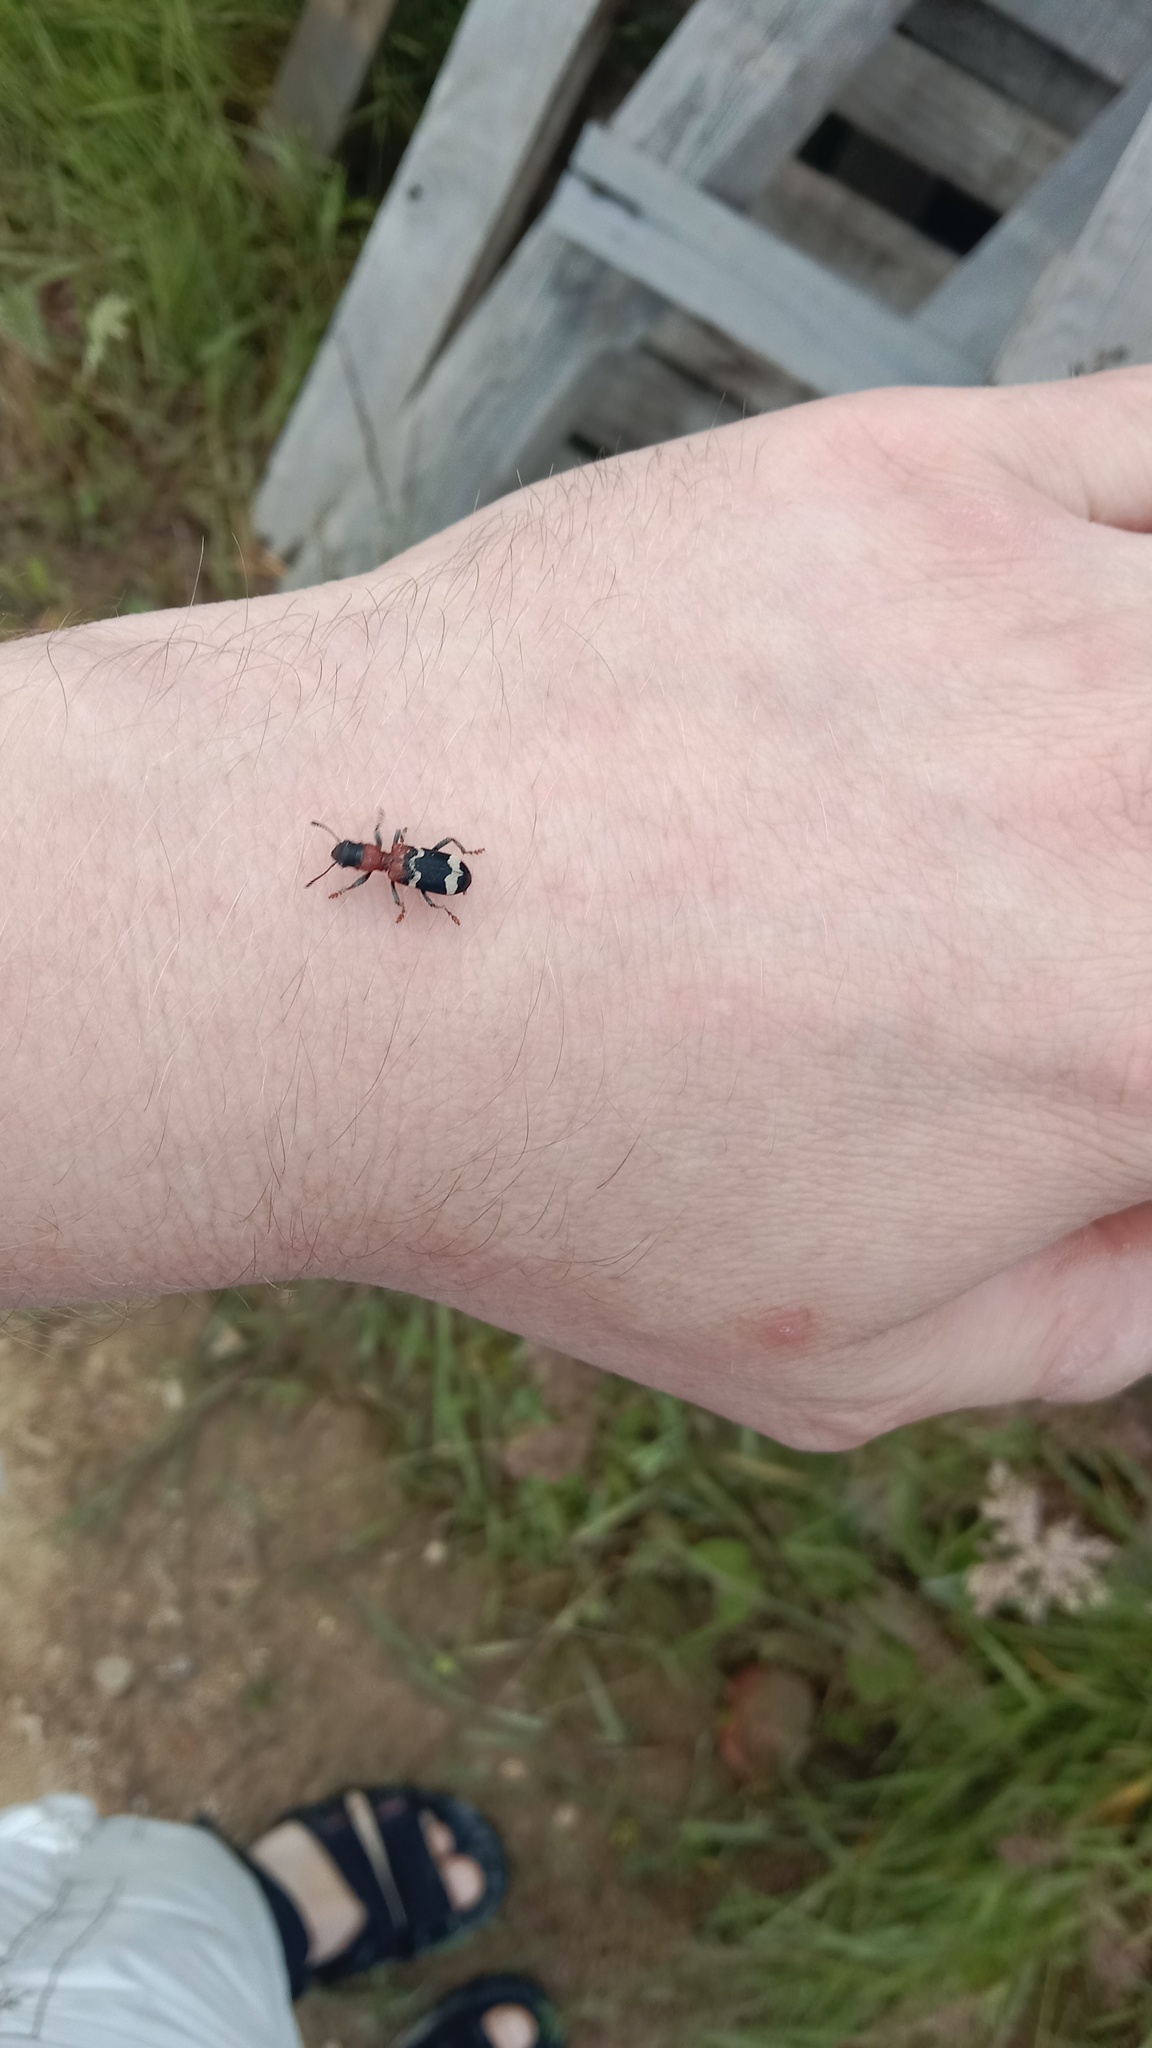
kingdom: Animalia
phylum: Arthropoda
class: Insecta
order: Coleoptera
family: Cleridae
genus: Thanasimus
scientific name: Thanasimus formicarius
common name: Ant beetle
